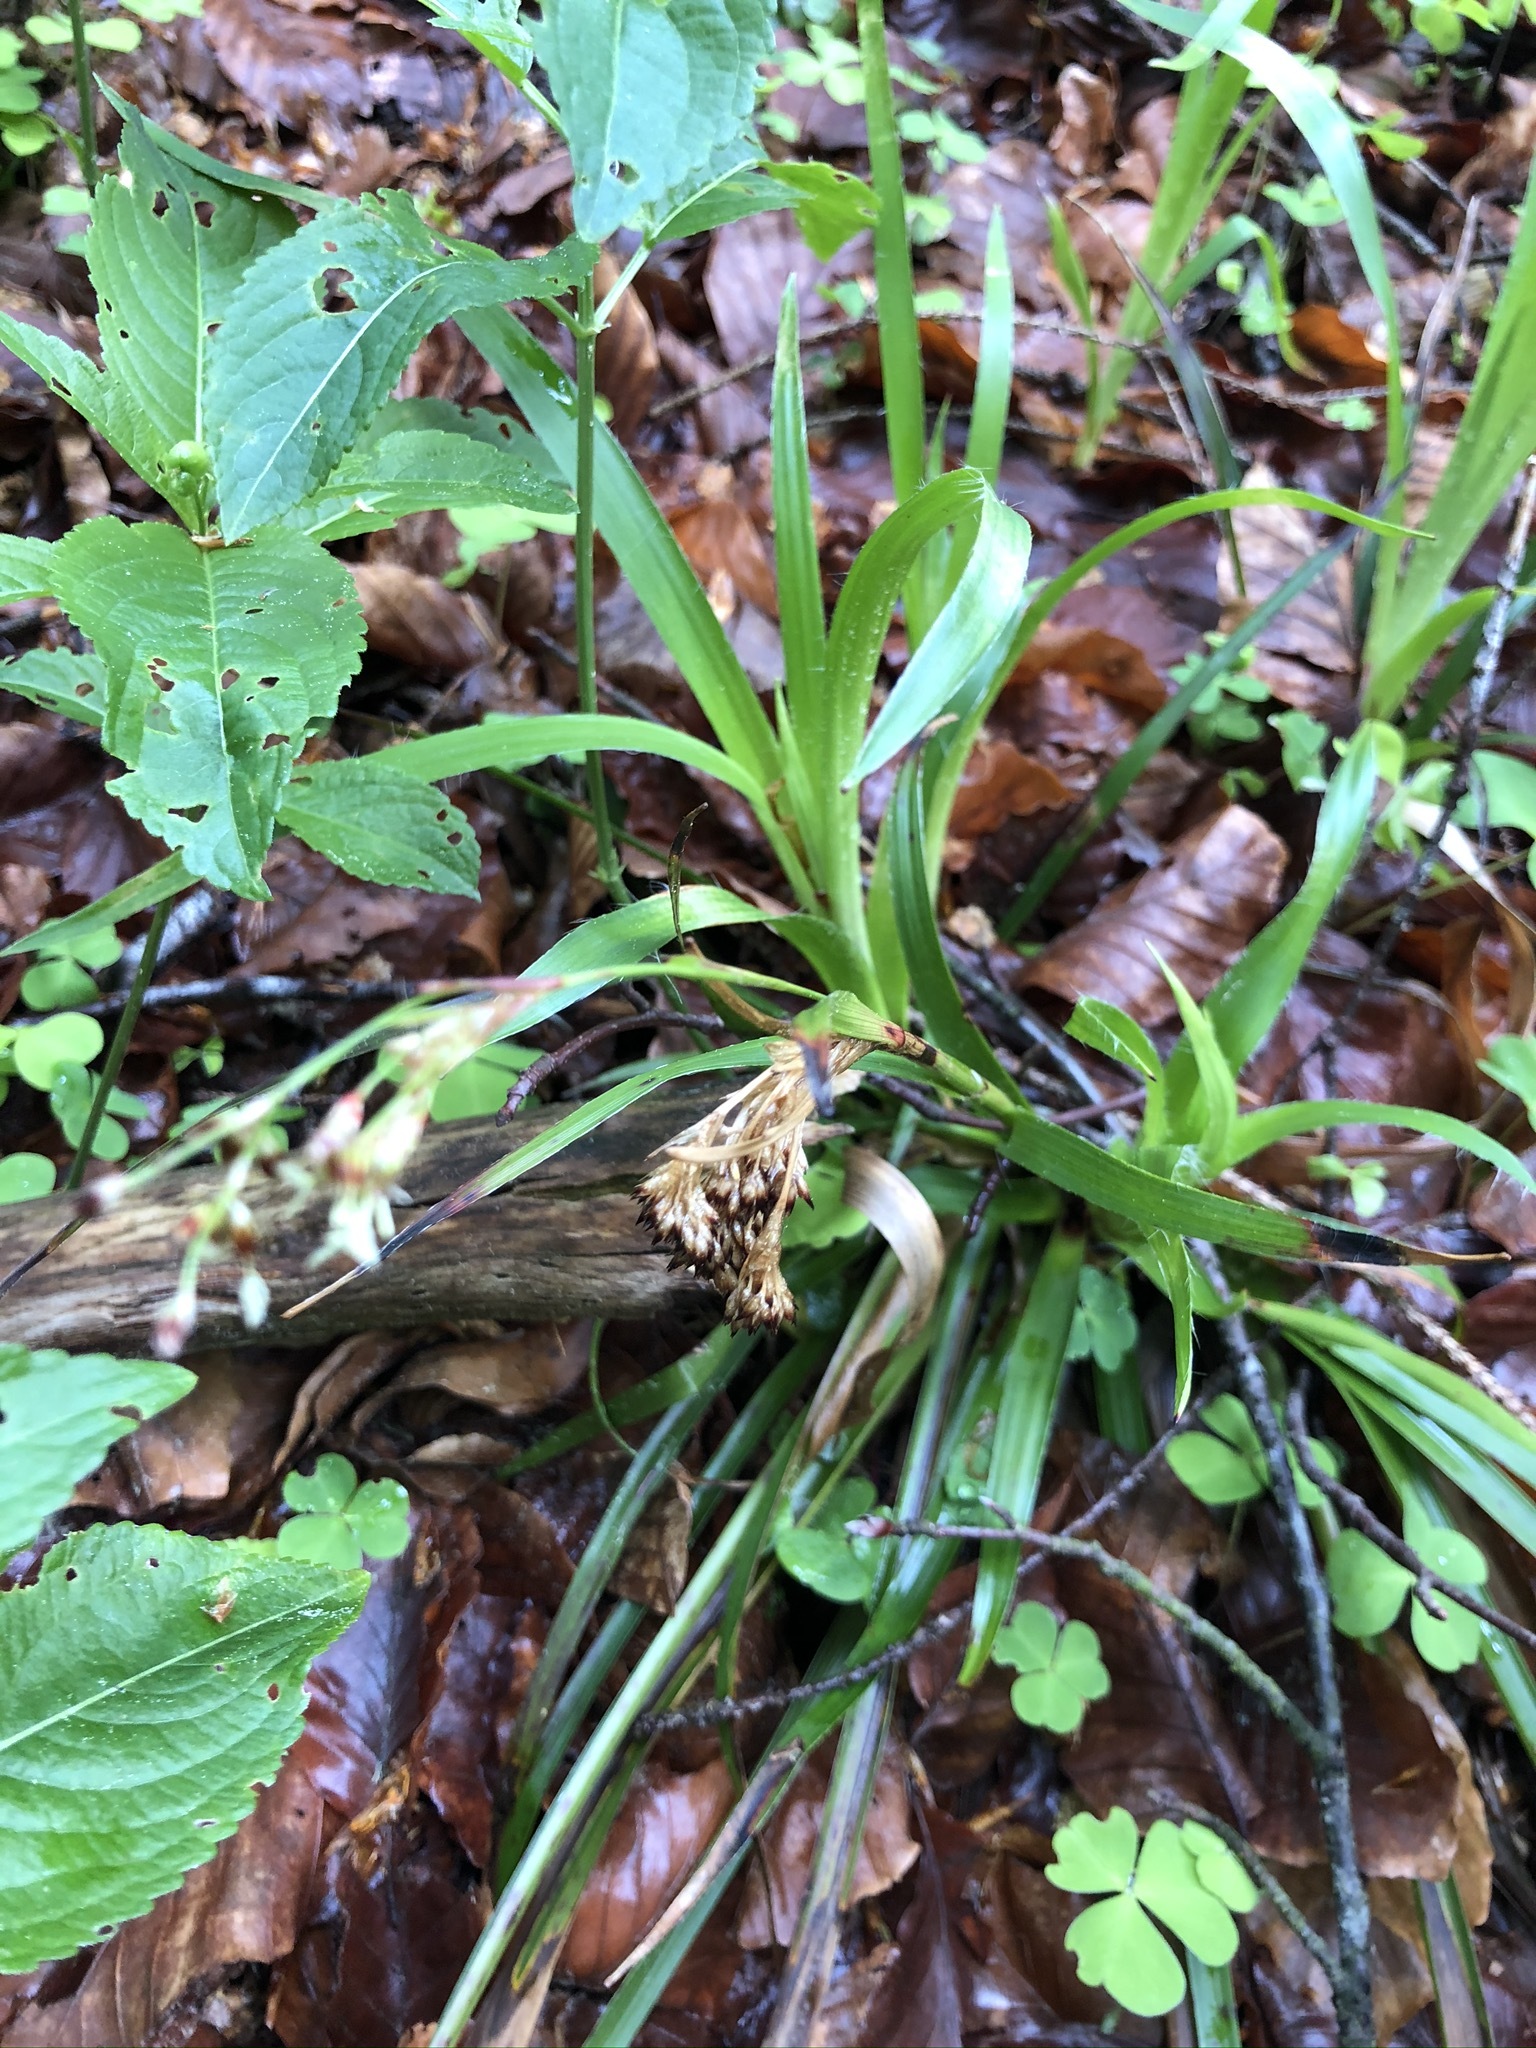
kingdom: Plantae
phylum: Tracheophyta
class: Liliopsida
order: Poales
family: Juncaceae
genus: Luzula
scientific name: Luzula sylvatica
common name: Great wood-rush
